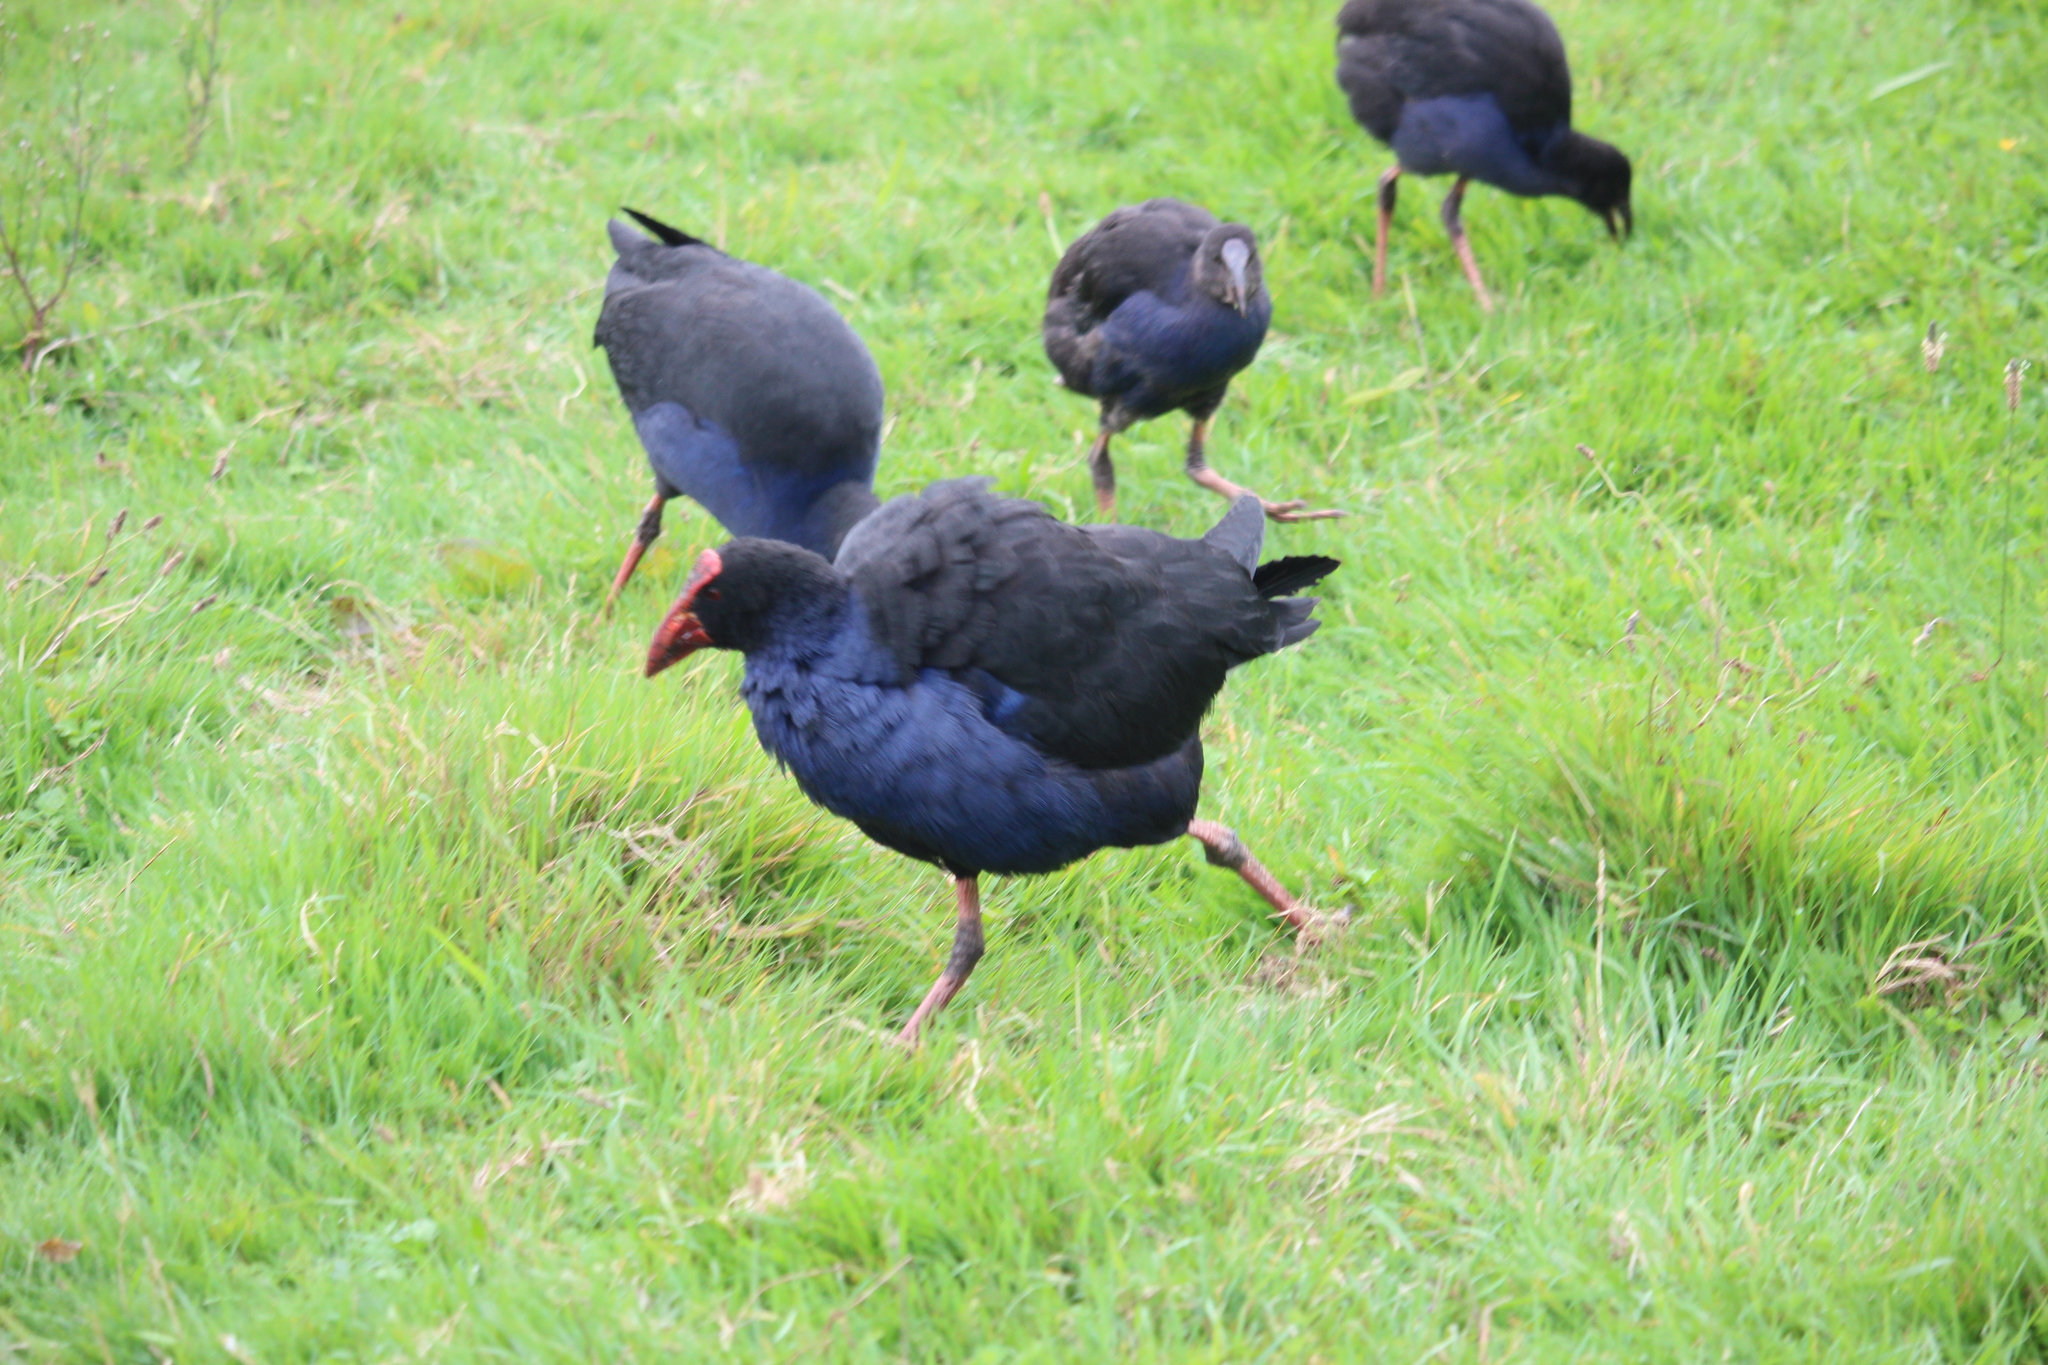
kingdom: Animalia
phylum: Chordata
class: Aves
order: Gruiformes
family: Rallidae
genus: Porphyrio
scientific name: Porphyrio melanotus
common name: Australasian swamphen
